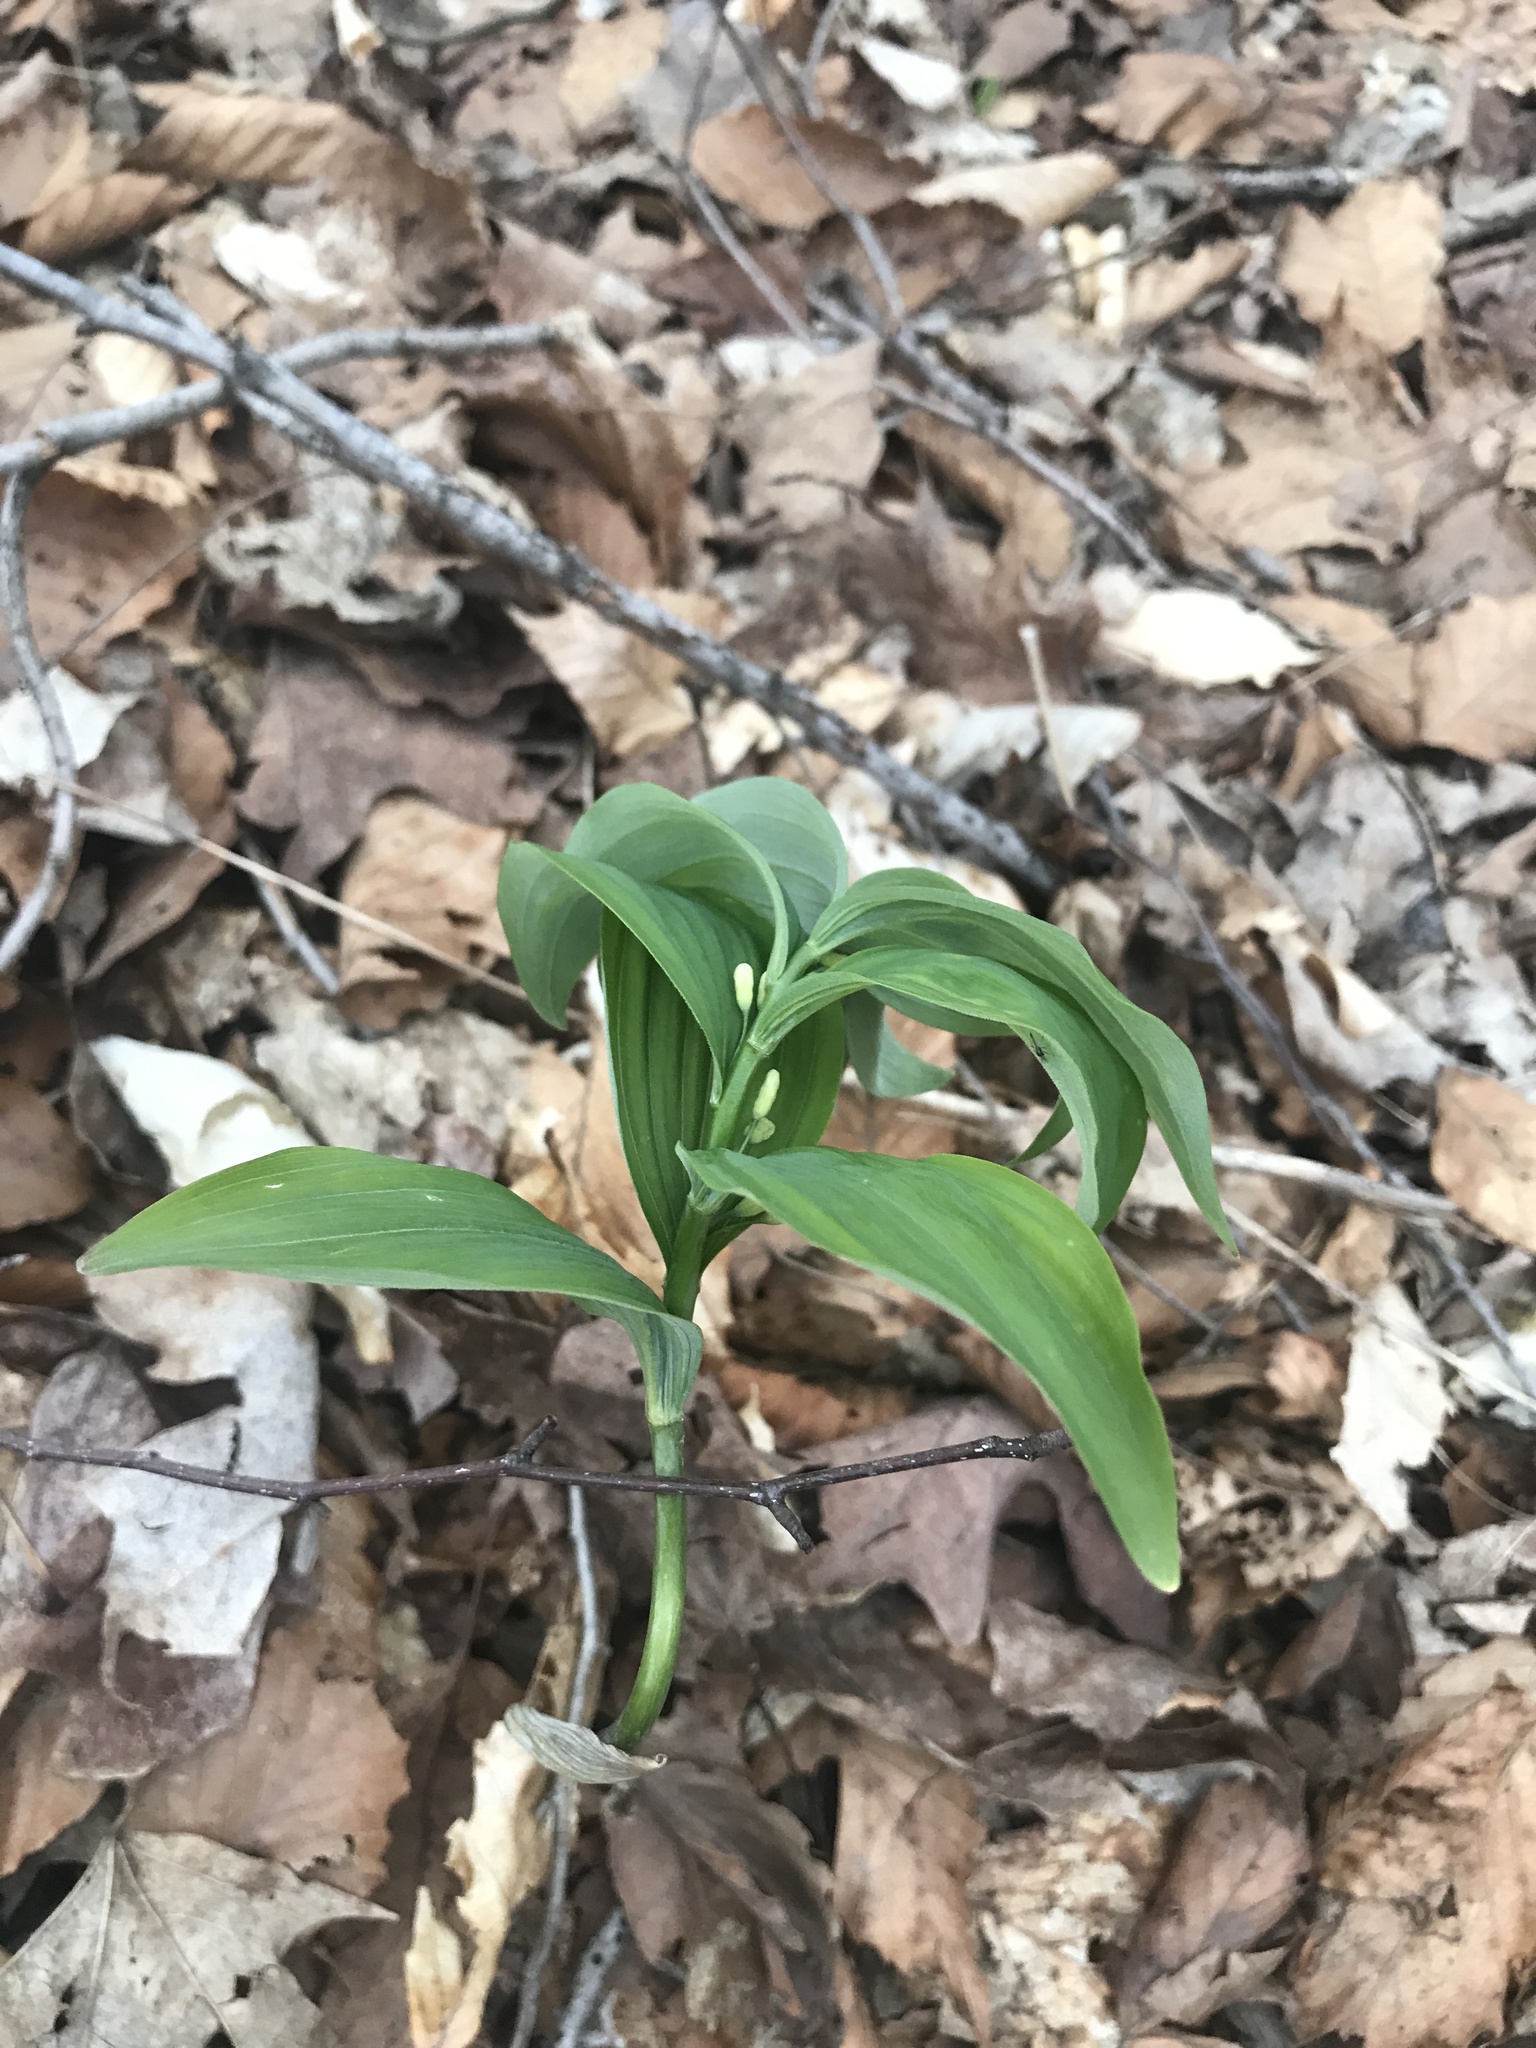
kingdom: Plantae
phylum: Tracheophyta
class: Liliopsida
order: Asparagales
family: Asparagaceae
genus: Polygonatum
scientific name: Polygonatum pubescens
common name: Downy solomon's seal
